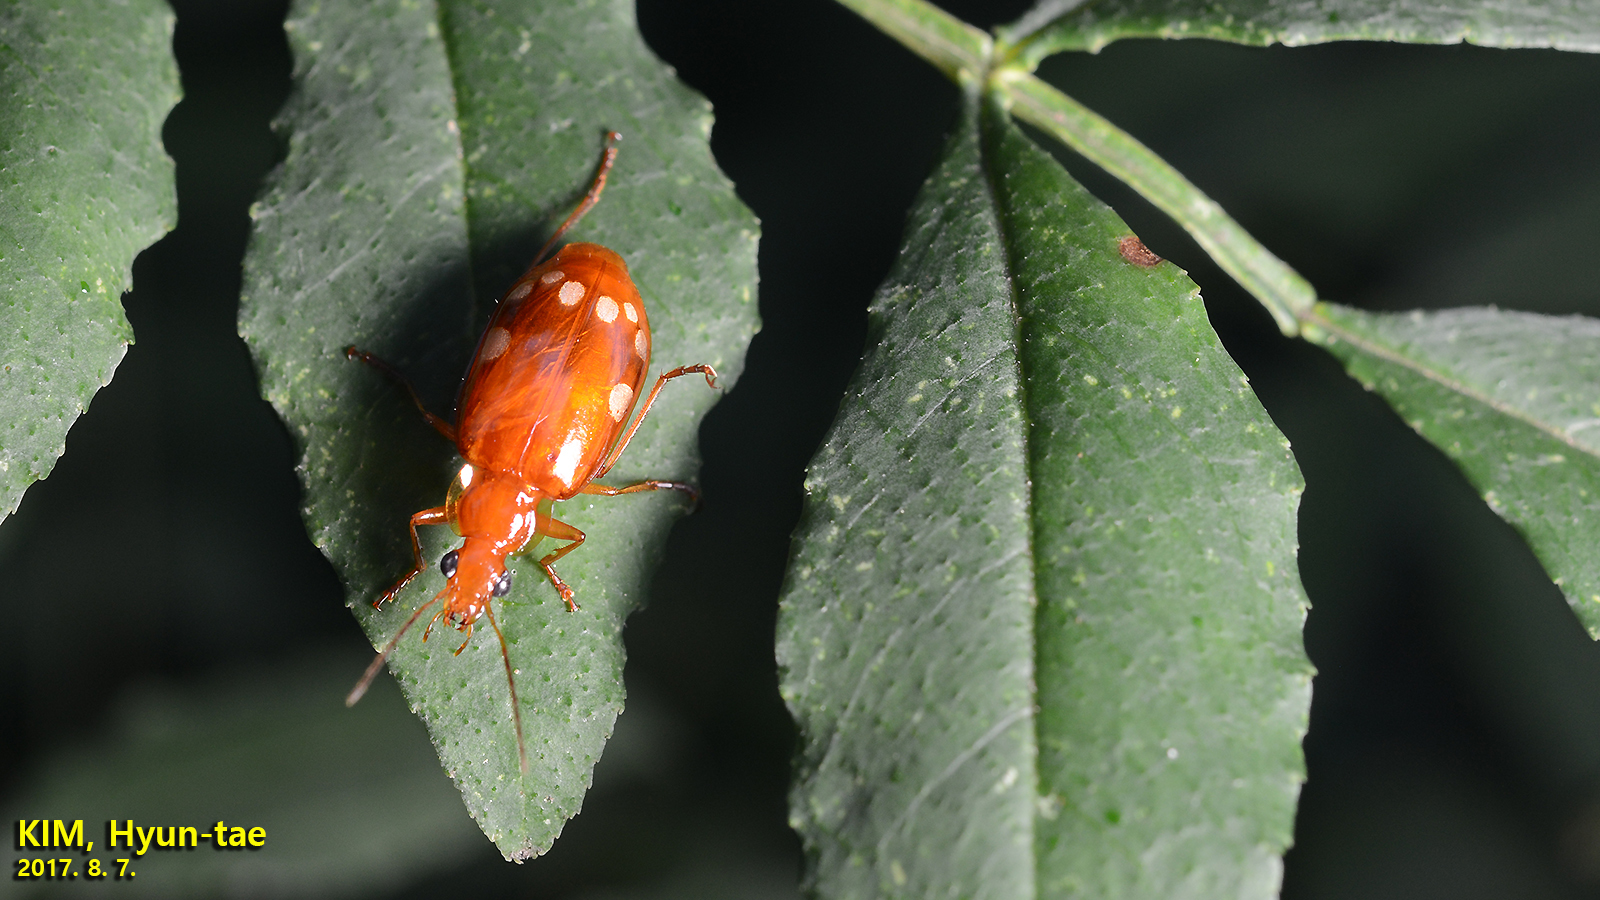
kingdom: Animalia
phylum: Arthropoda
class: Insecta
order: Coleoptera
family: Carabidae
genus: Lebidia
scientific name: Lebidia octoguttata
